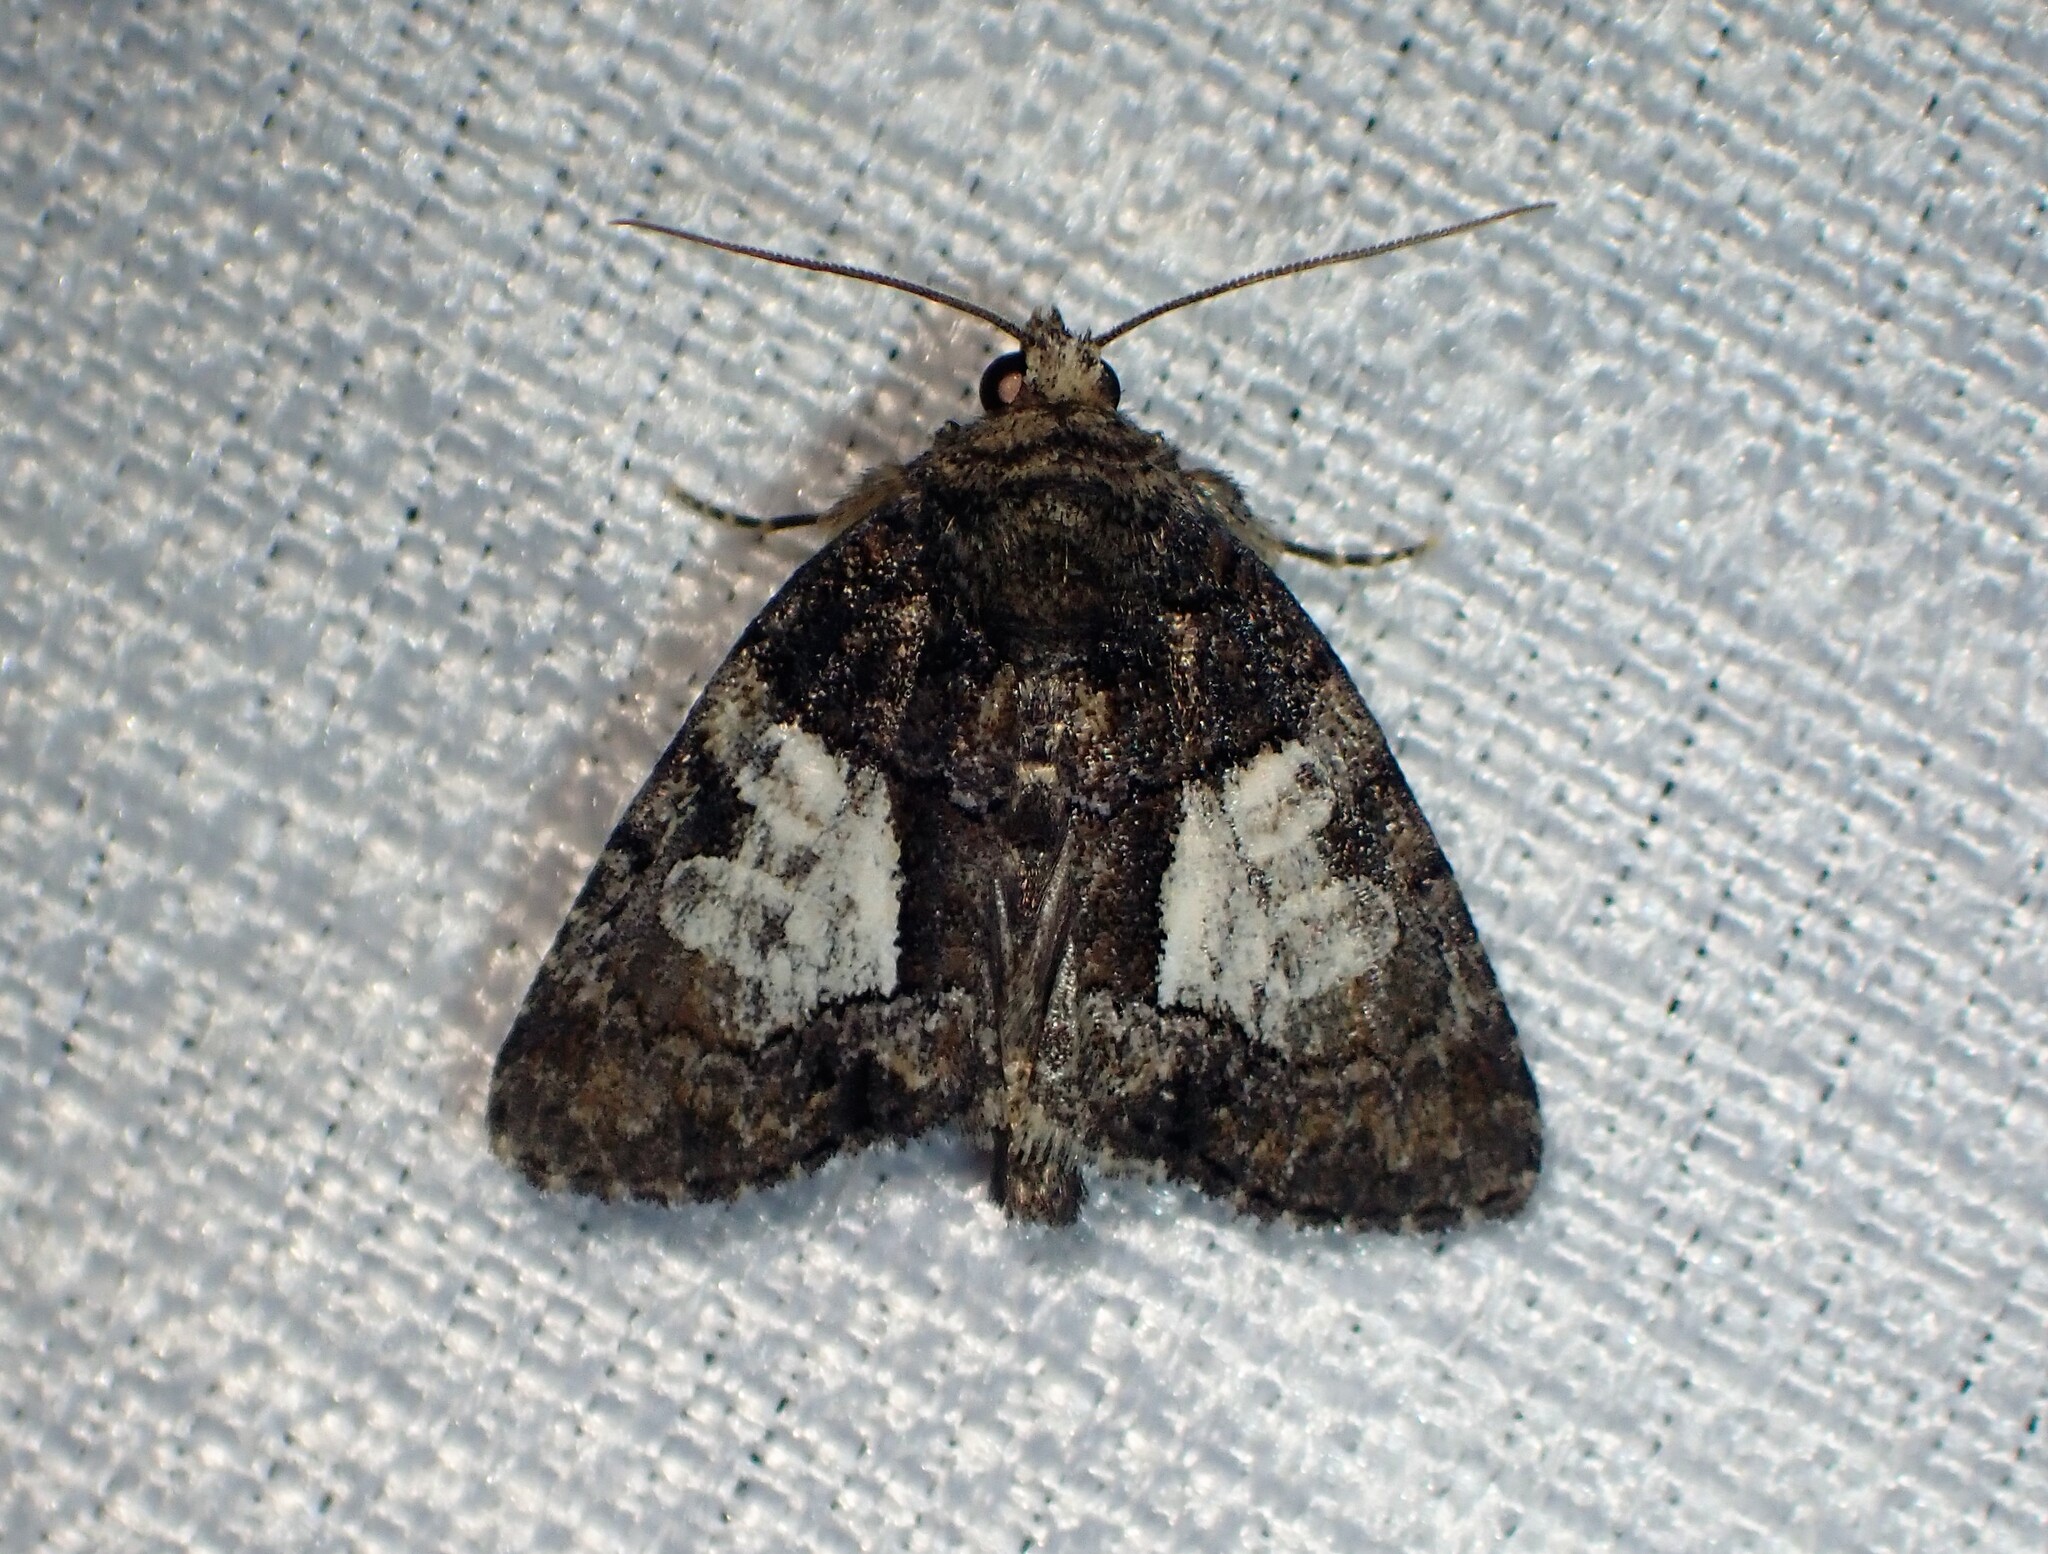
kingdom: Animalia
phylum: Arthropoda
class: Insecta
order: Lepidoptera
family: Noctuidae
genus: Chytonix
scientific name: Chytonix palliatricula
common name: Cloaked marvel
